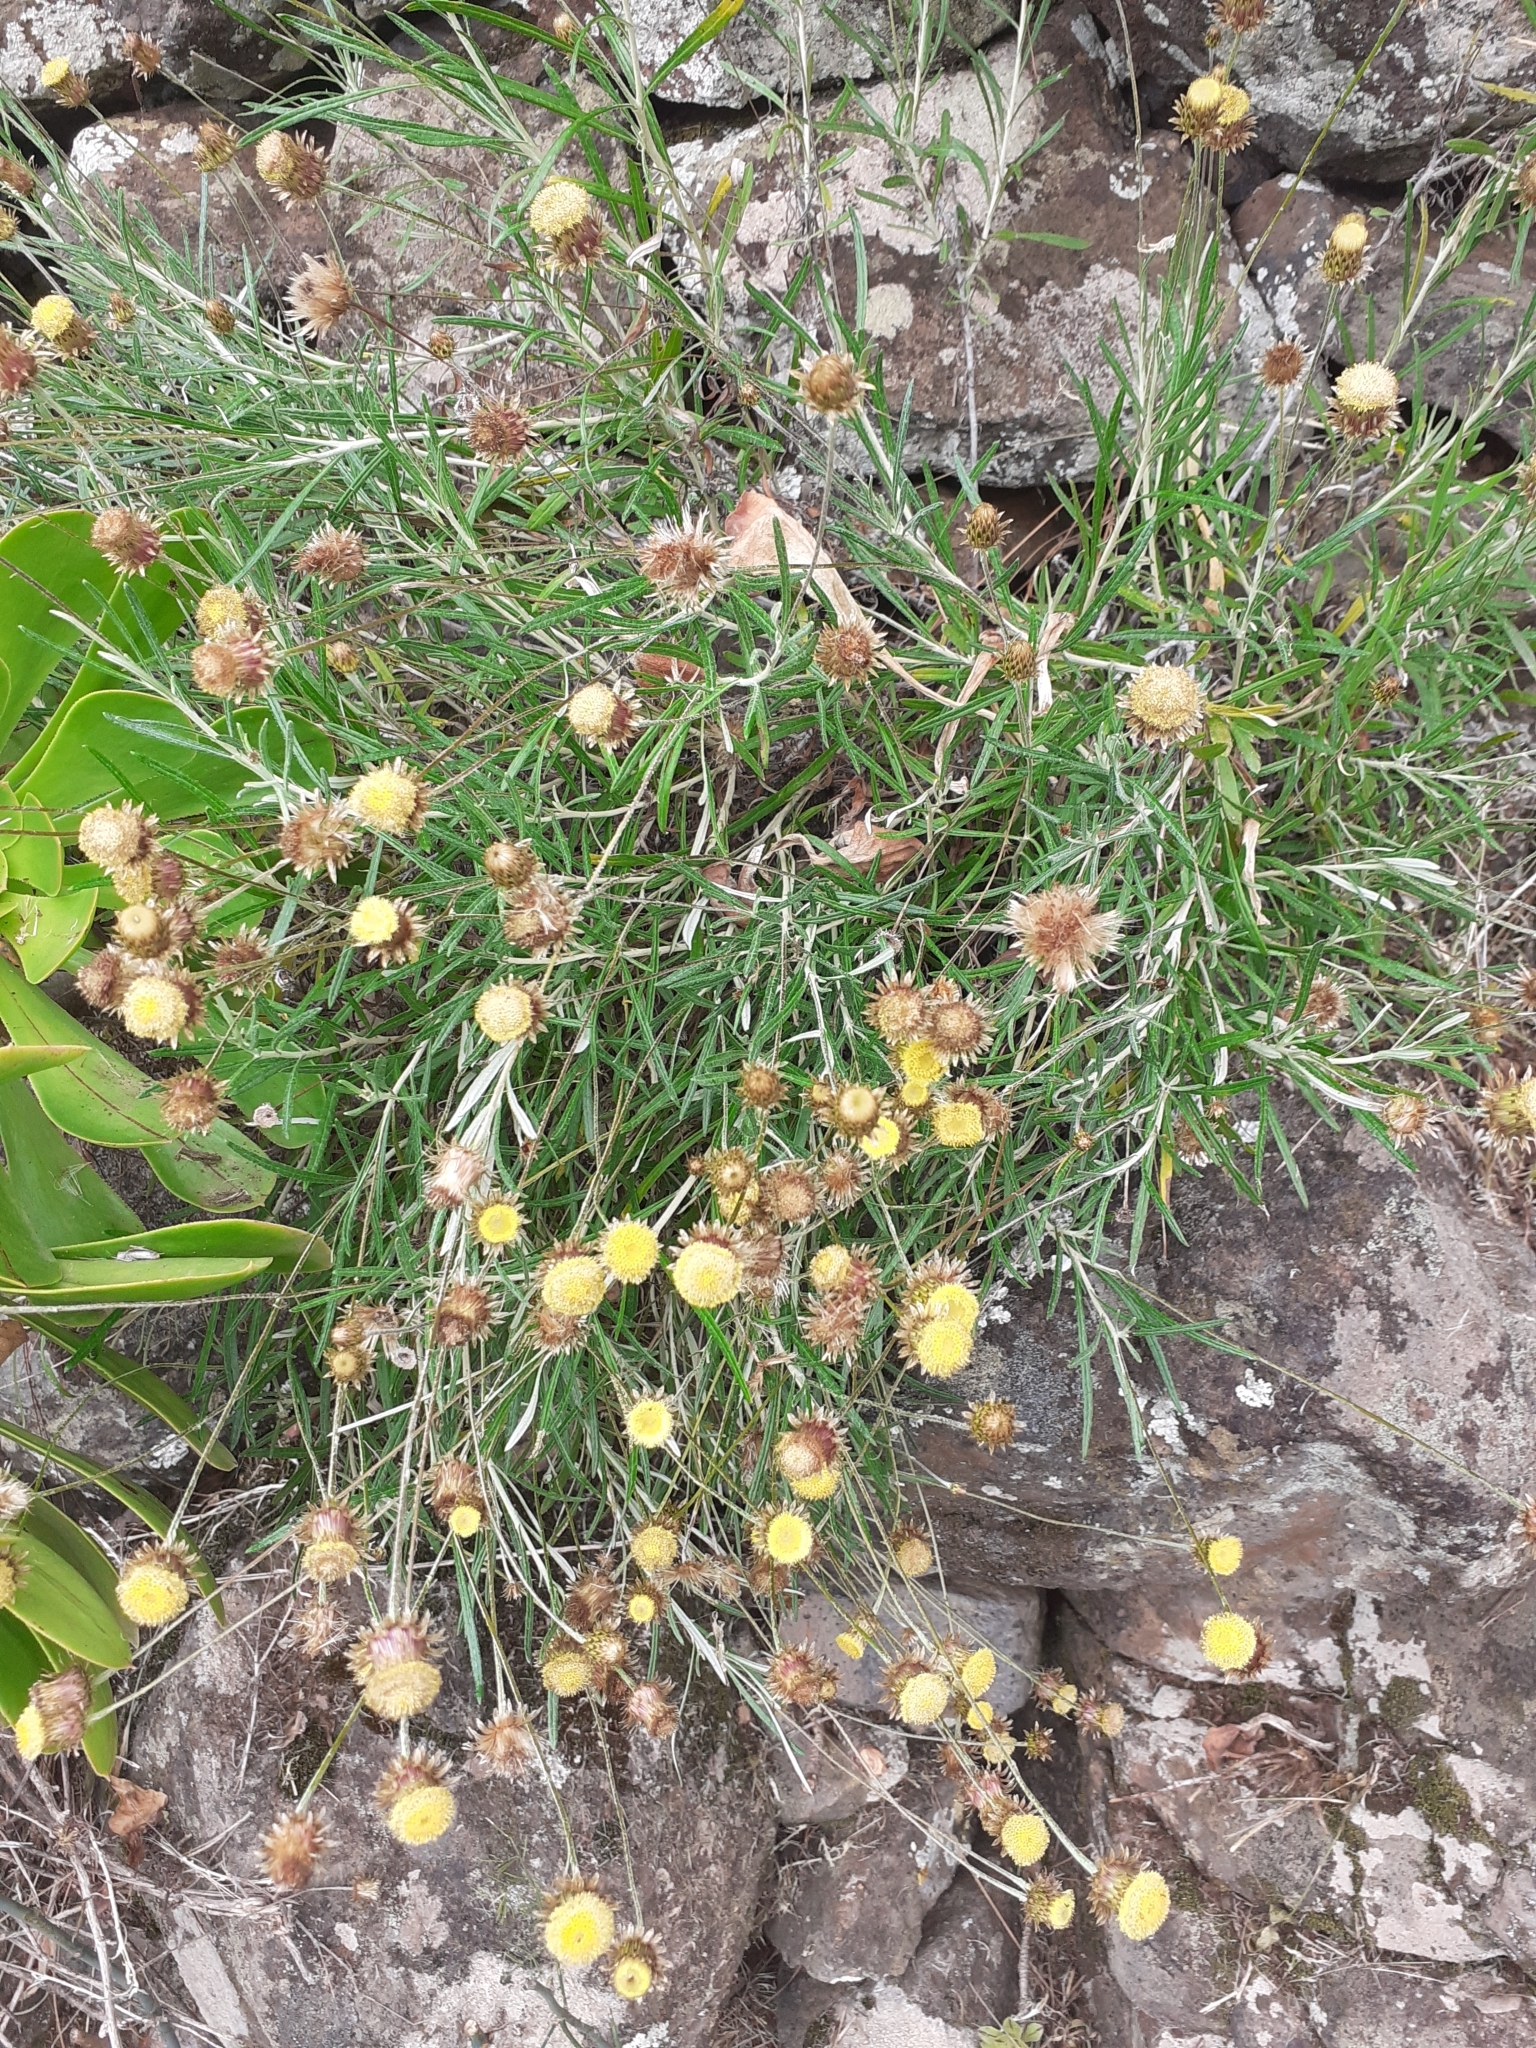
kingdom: Plantae
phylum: Tracheophyta
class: Magnoliopsida
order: Asterales
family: Asteraceae
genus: Phagnalon
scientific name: Phagnalon saxatile
